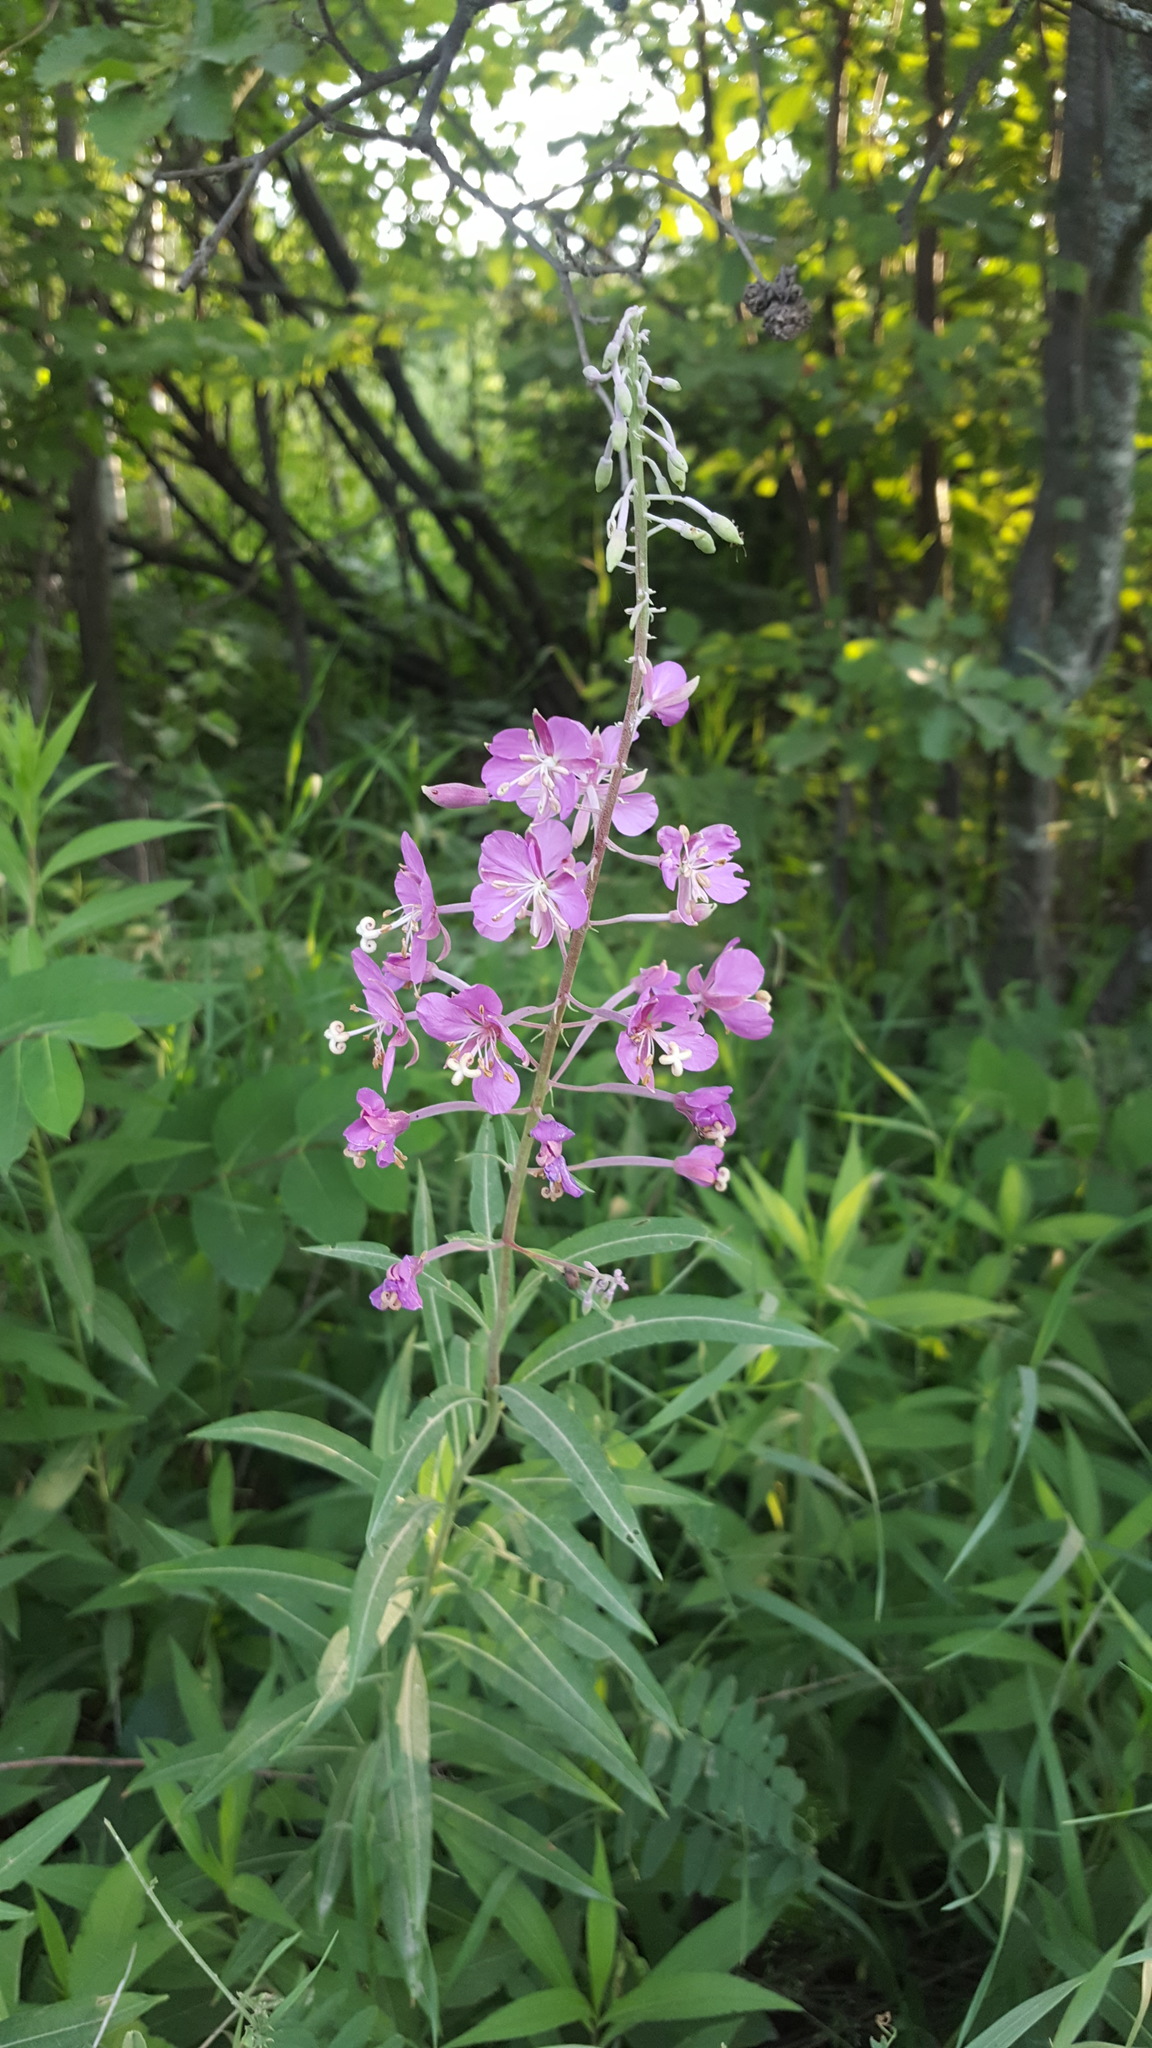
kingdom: Plantae
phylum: Tracheophyta
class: Magnoliopsida
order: Myrtales
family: Onagraceae
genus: Chamaenerion
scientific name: Chamaenerion angustifolium
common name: Fireweed
